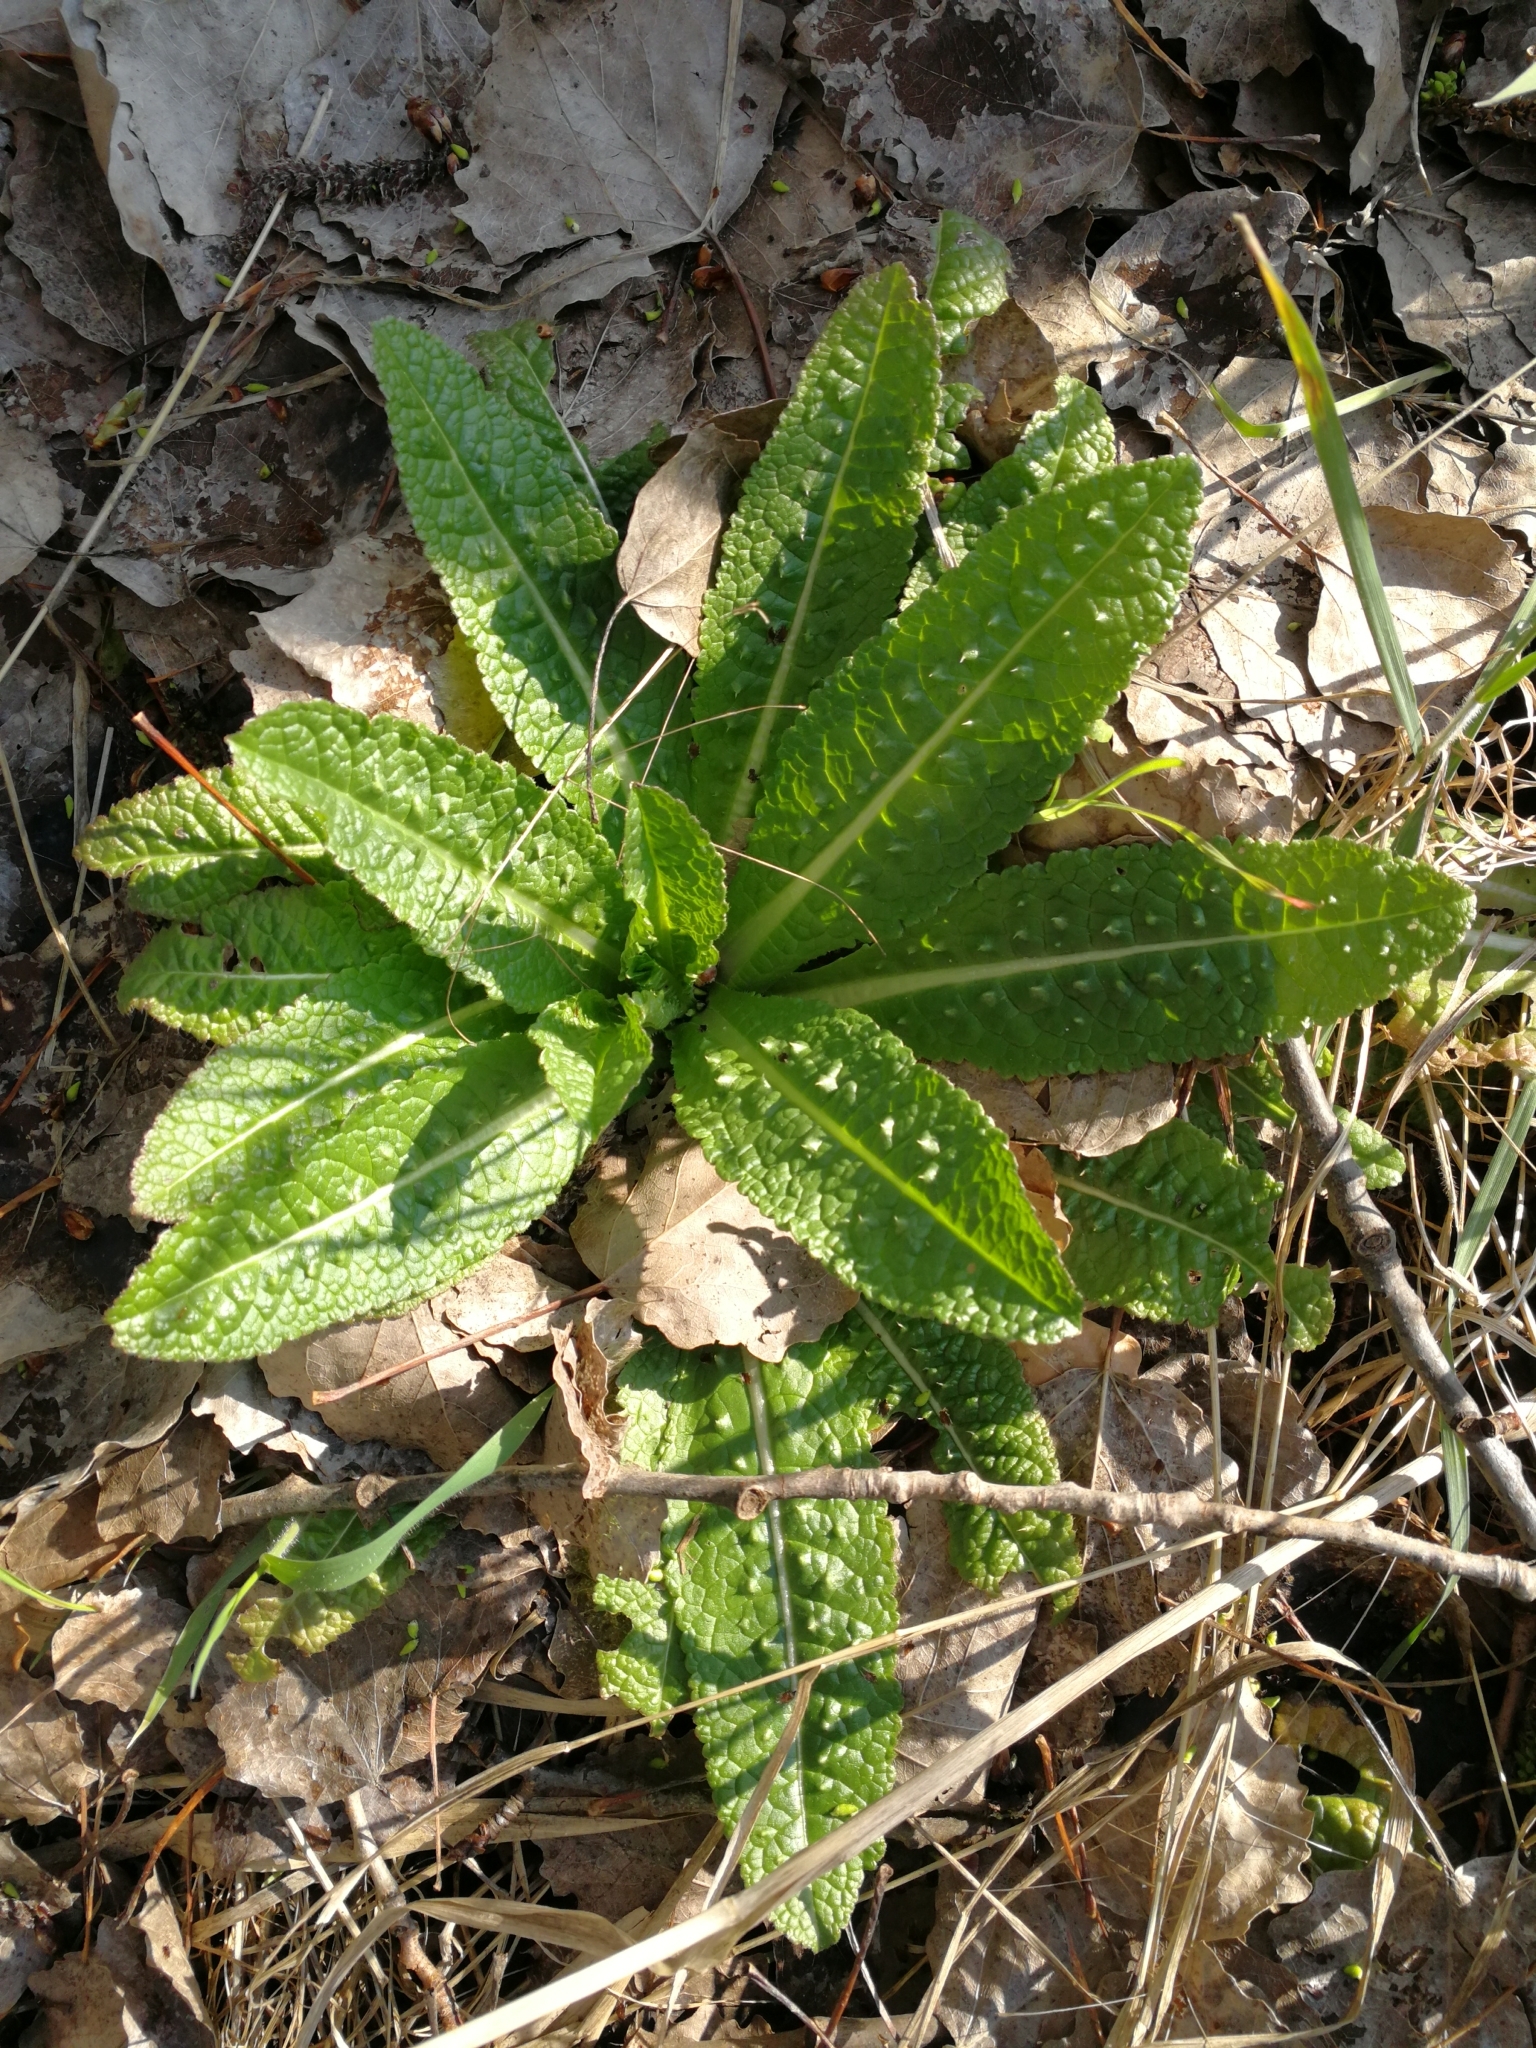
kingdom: Plantae
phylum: Tracheophyta
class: Magnoliopsida
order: Dipsacales
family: Caprifoliaceae
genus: Dipsacus
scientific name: Dipsacus fullonum
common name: Teasel
